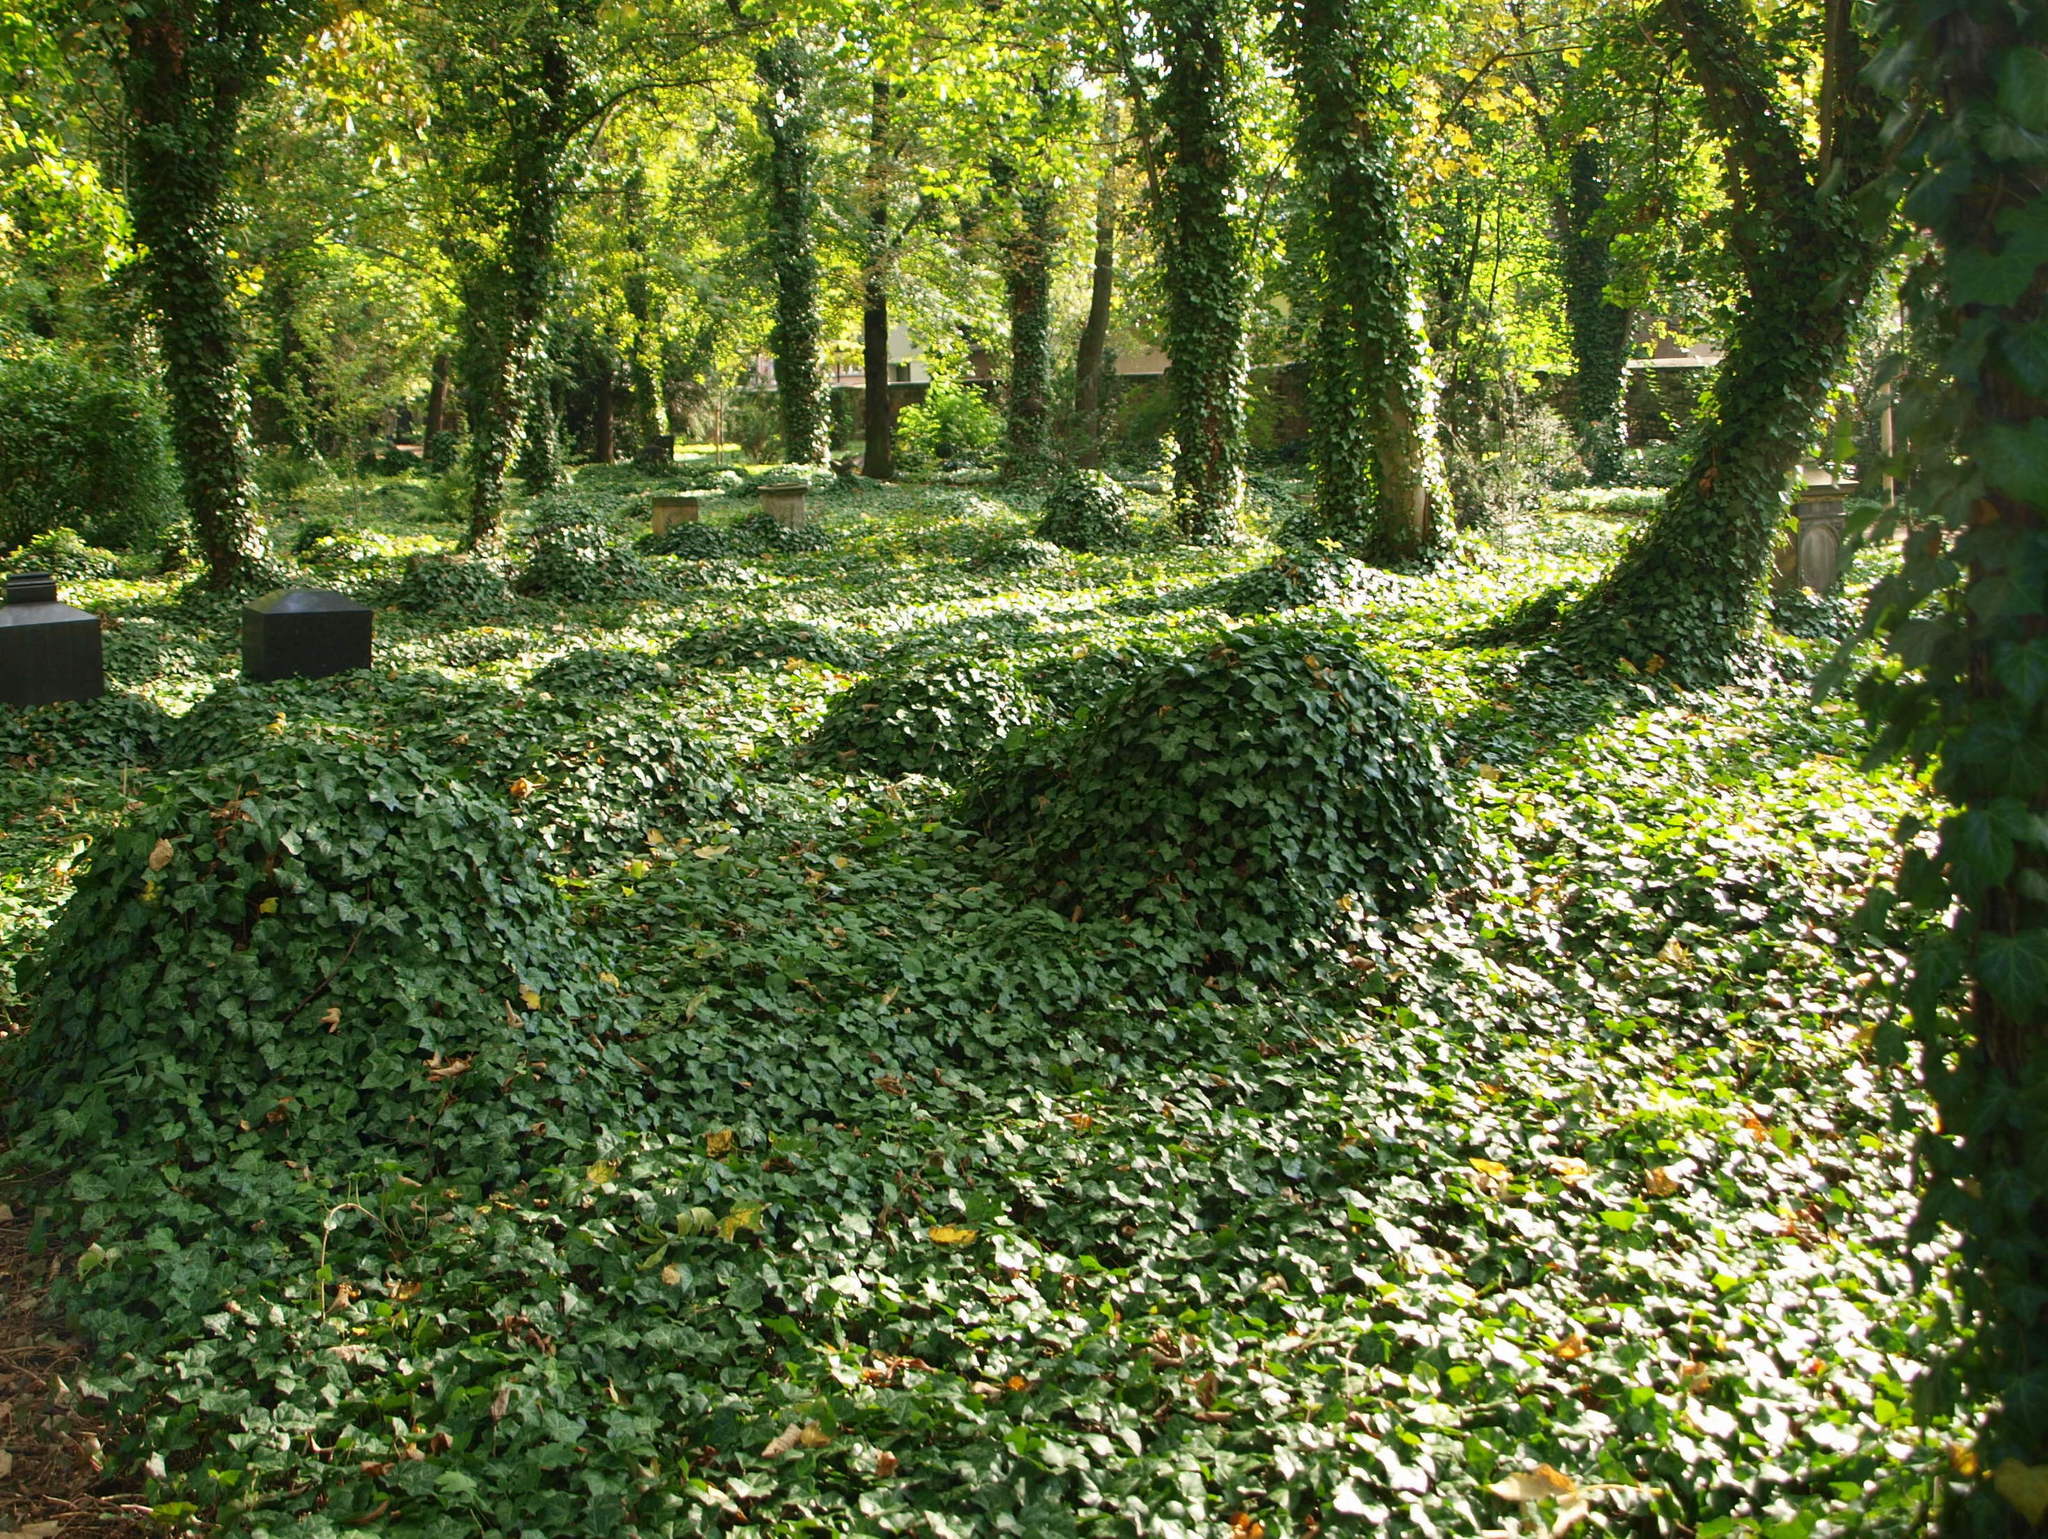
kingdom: Plantae
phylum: Tracheophyta
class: Magnoliopsida
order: Apiales
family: Araliaceae
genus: Hedera
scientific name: Hedera helix
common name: Ivy
